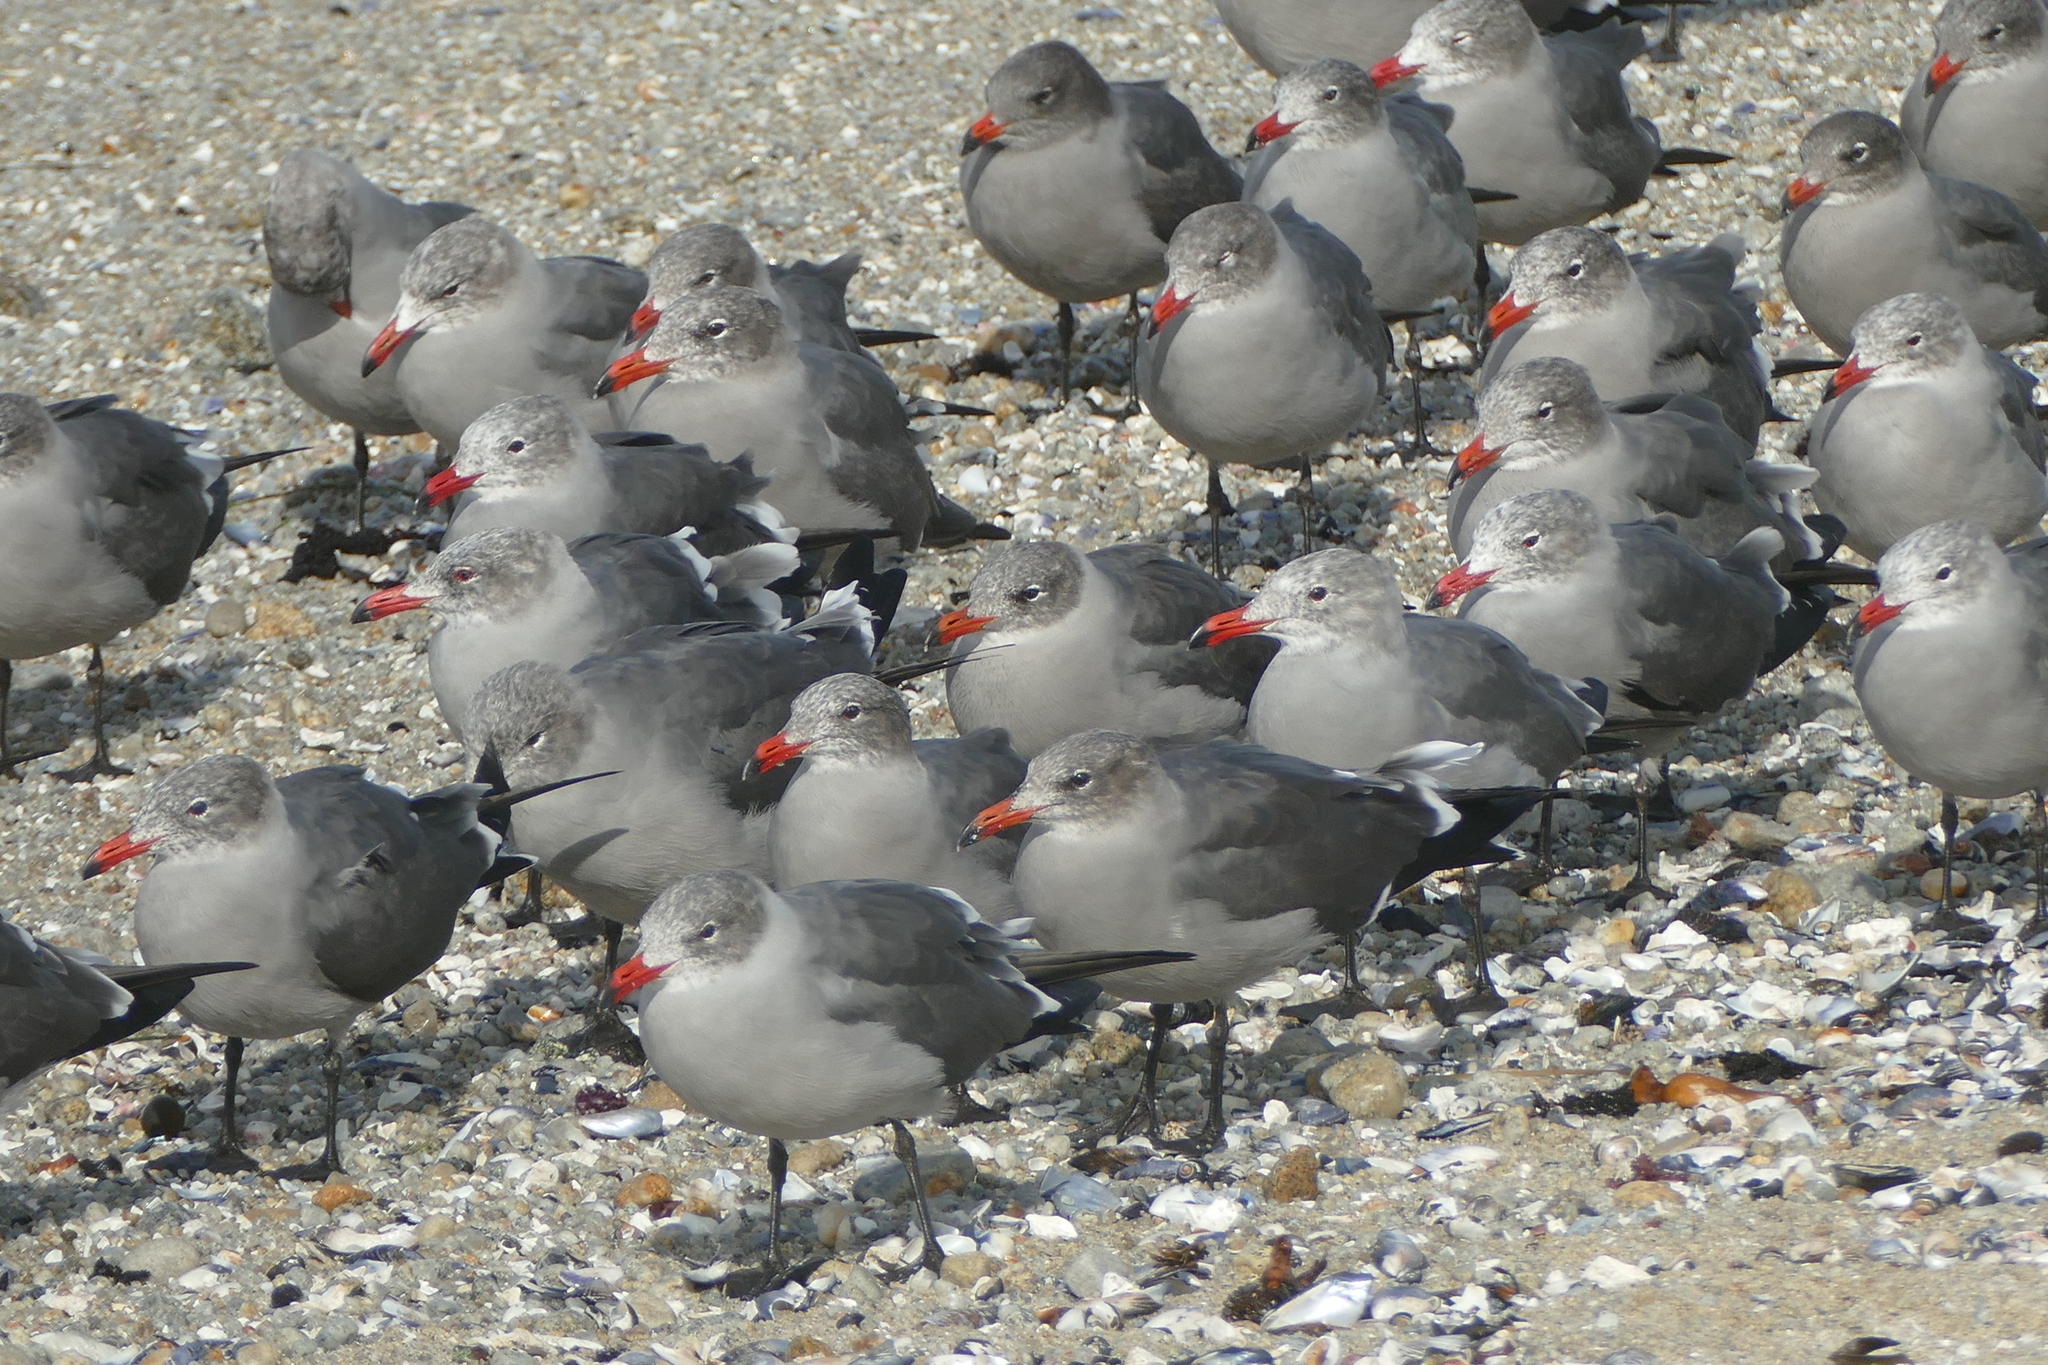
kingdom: Animalia
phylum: Chordata
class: Aves
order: Charadriiformes
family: Laridae
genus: Larus
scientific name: Larus heermanni
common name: Heermann's gull
